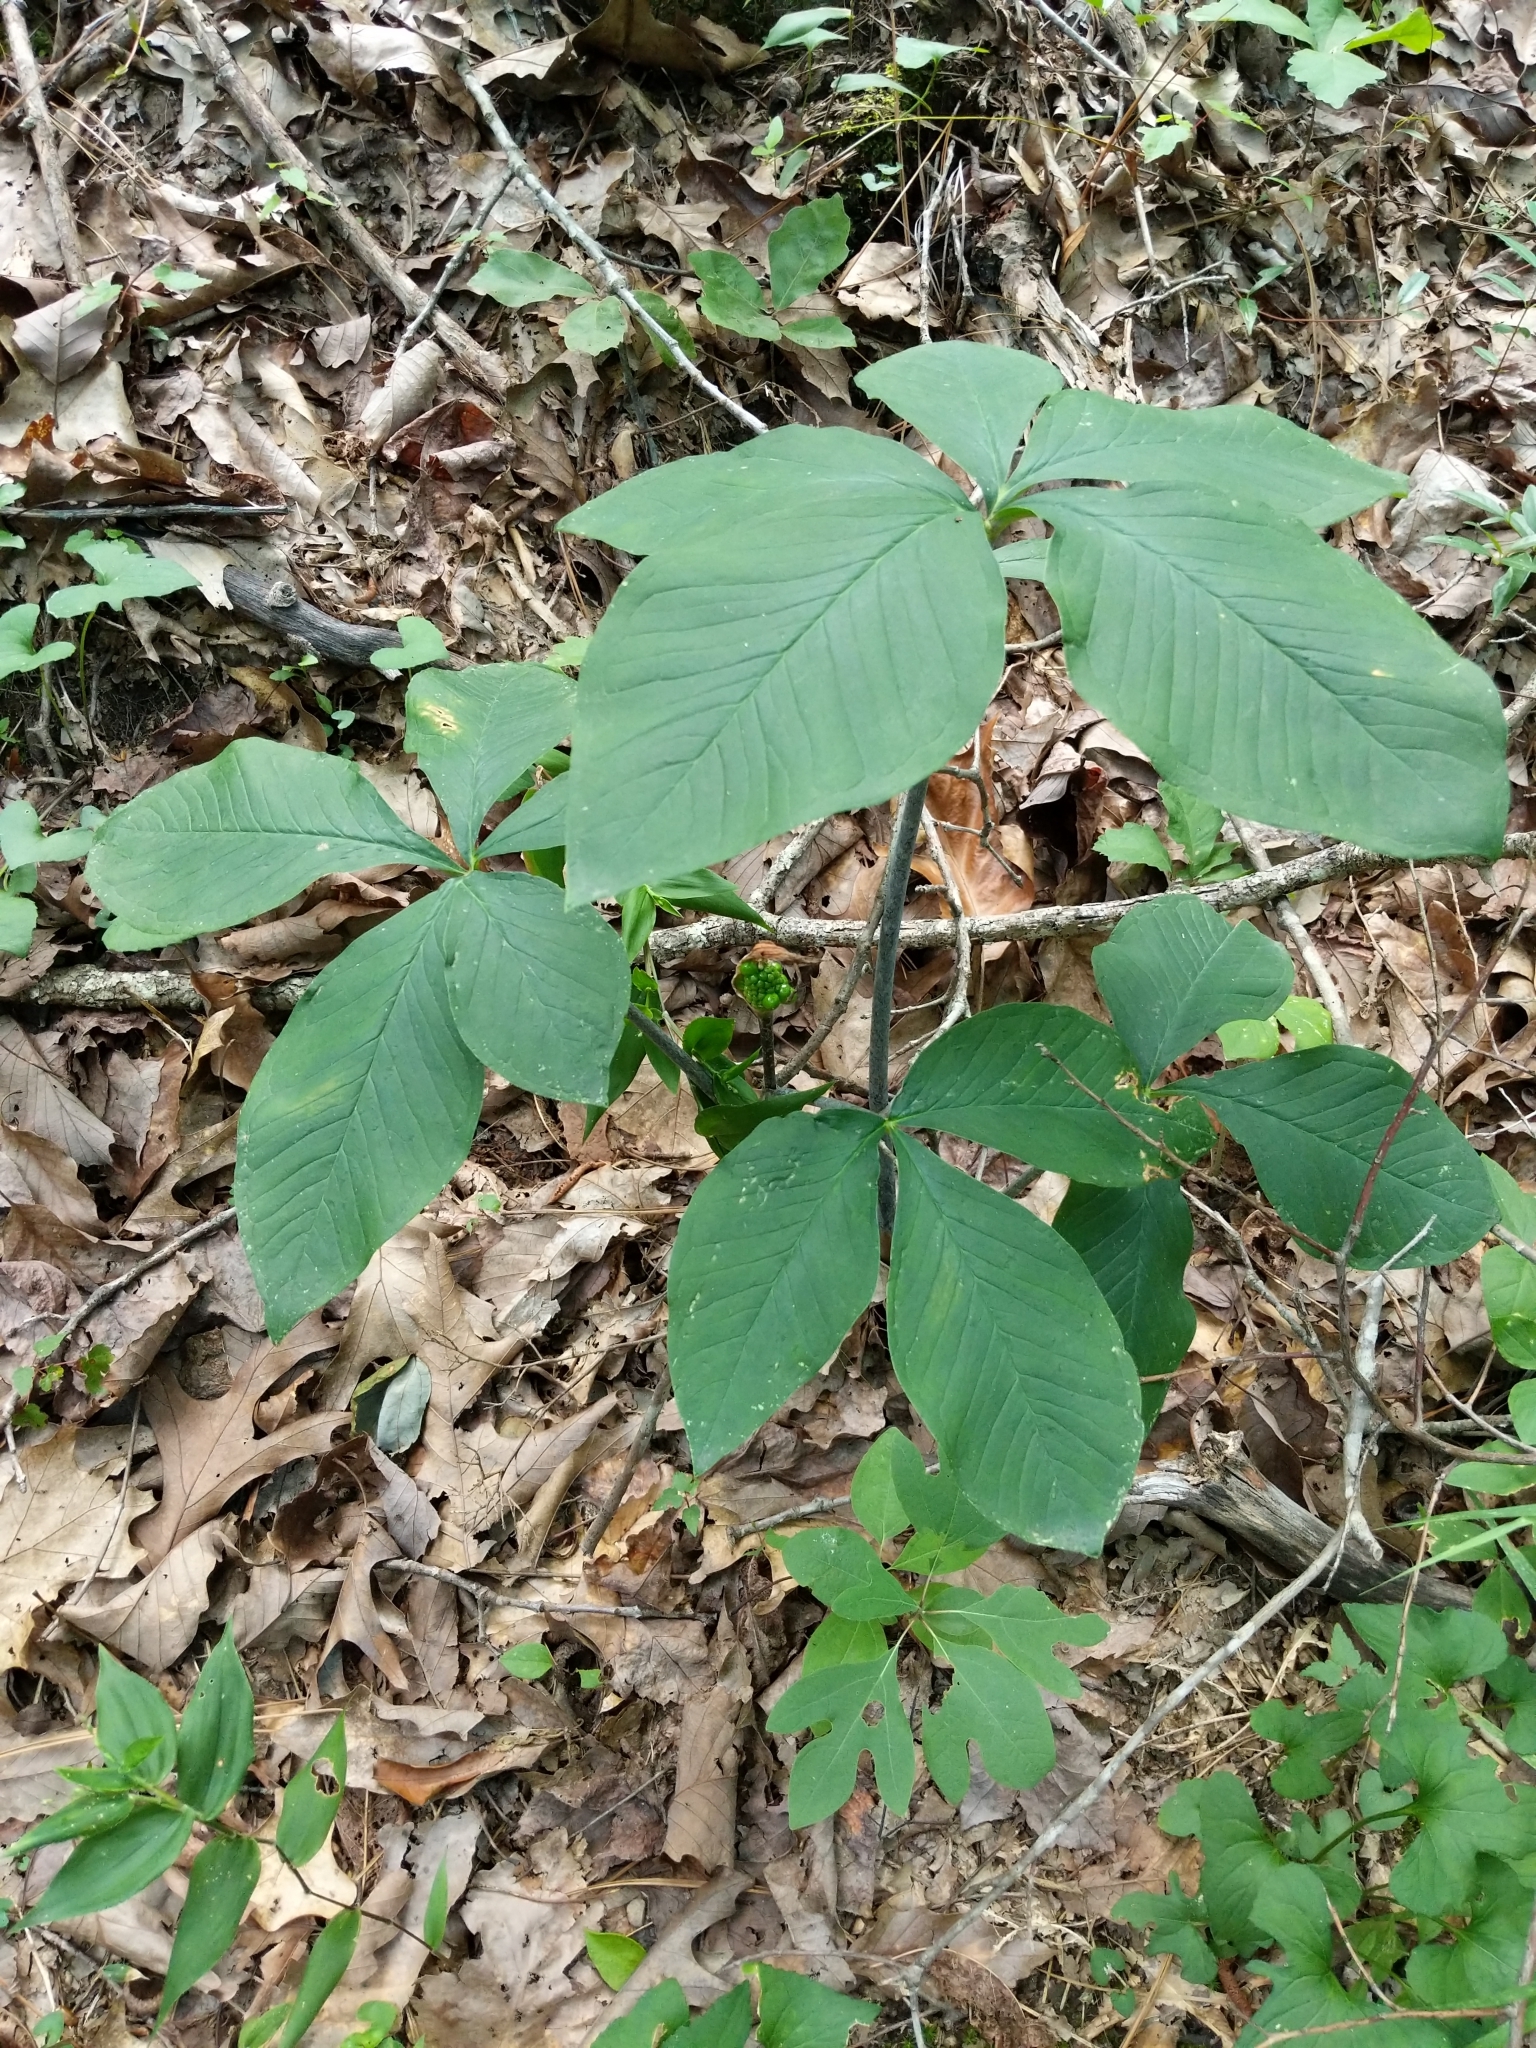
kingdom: Plantae
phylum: Tracheophyta
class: Liliopsida
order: Alismatales
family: Araceae
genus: Arisaema
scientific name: Arisaema quinatum
